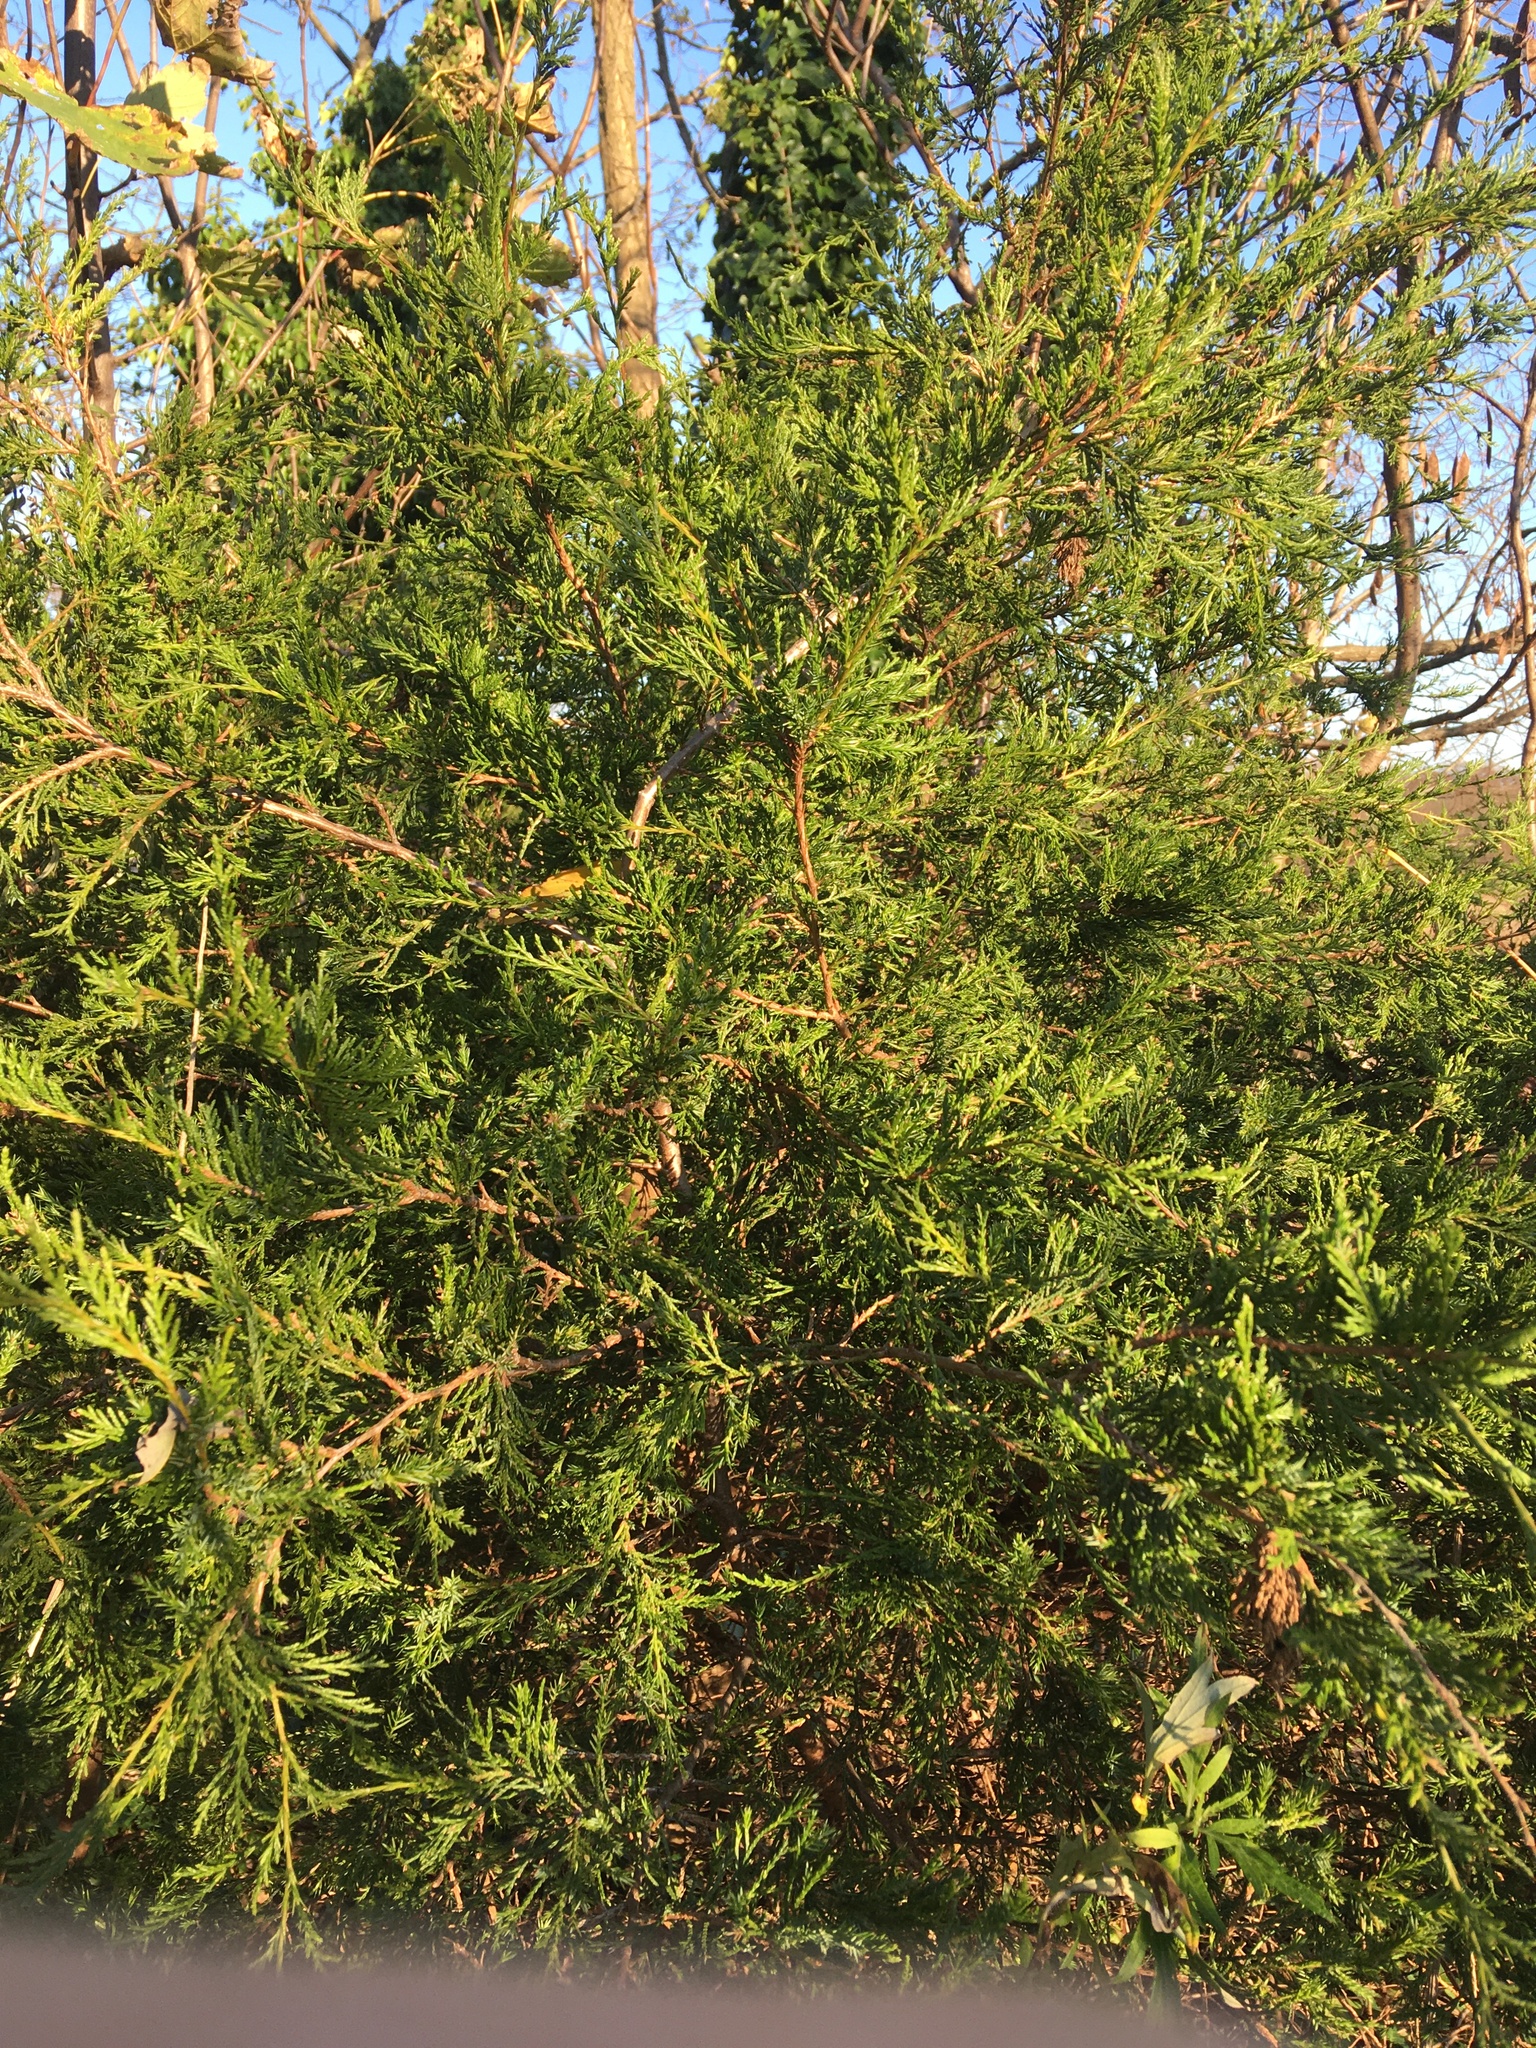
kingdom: Plantae
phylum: Tracheophyta
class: Pinopsida
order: Pinales
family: Cupressaceae
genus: Juniperus
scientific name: Juniperus virginiana
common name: Red juniper
